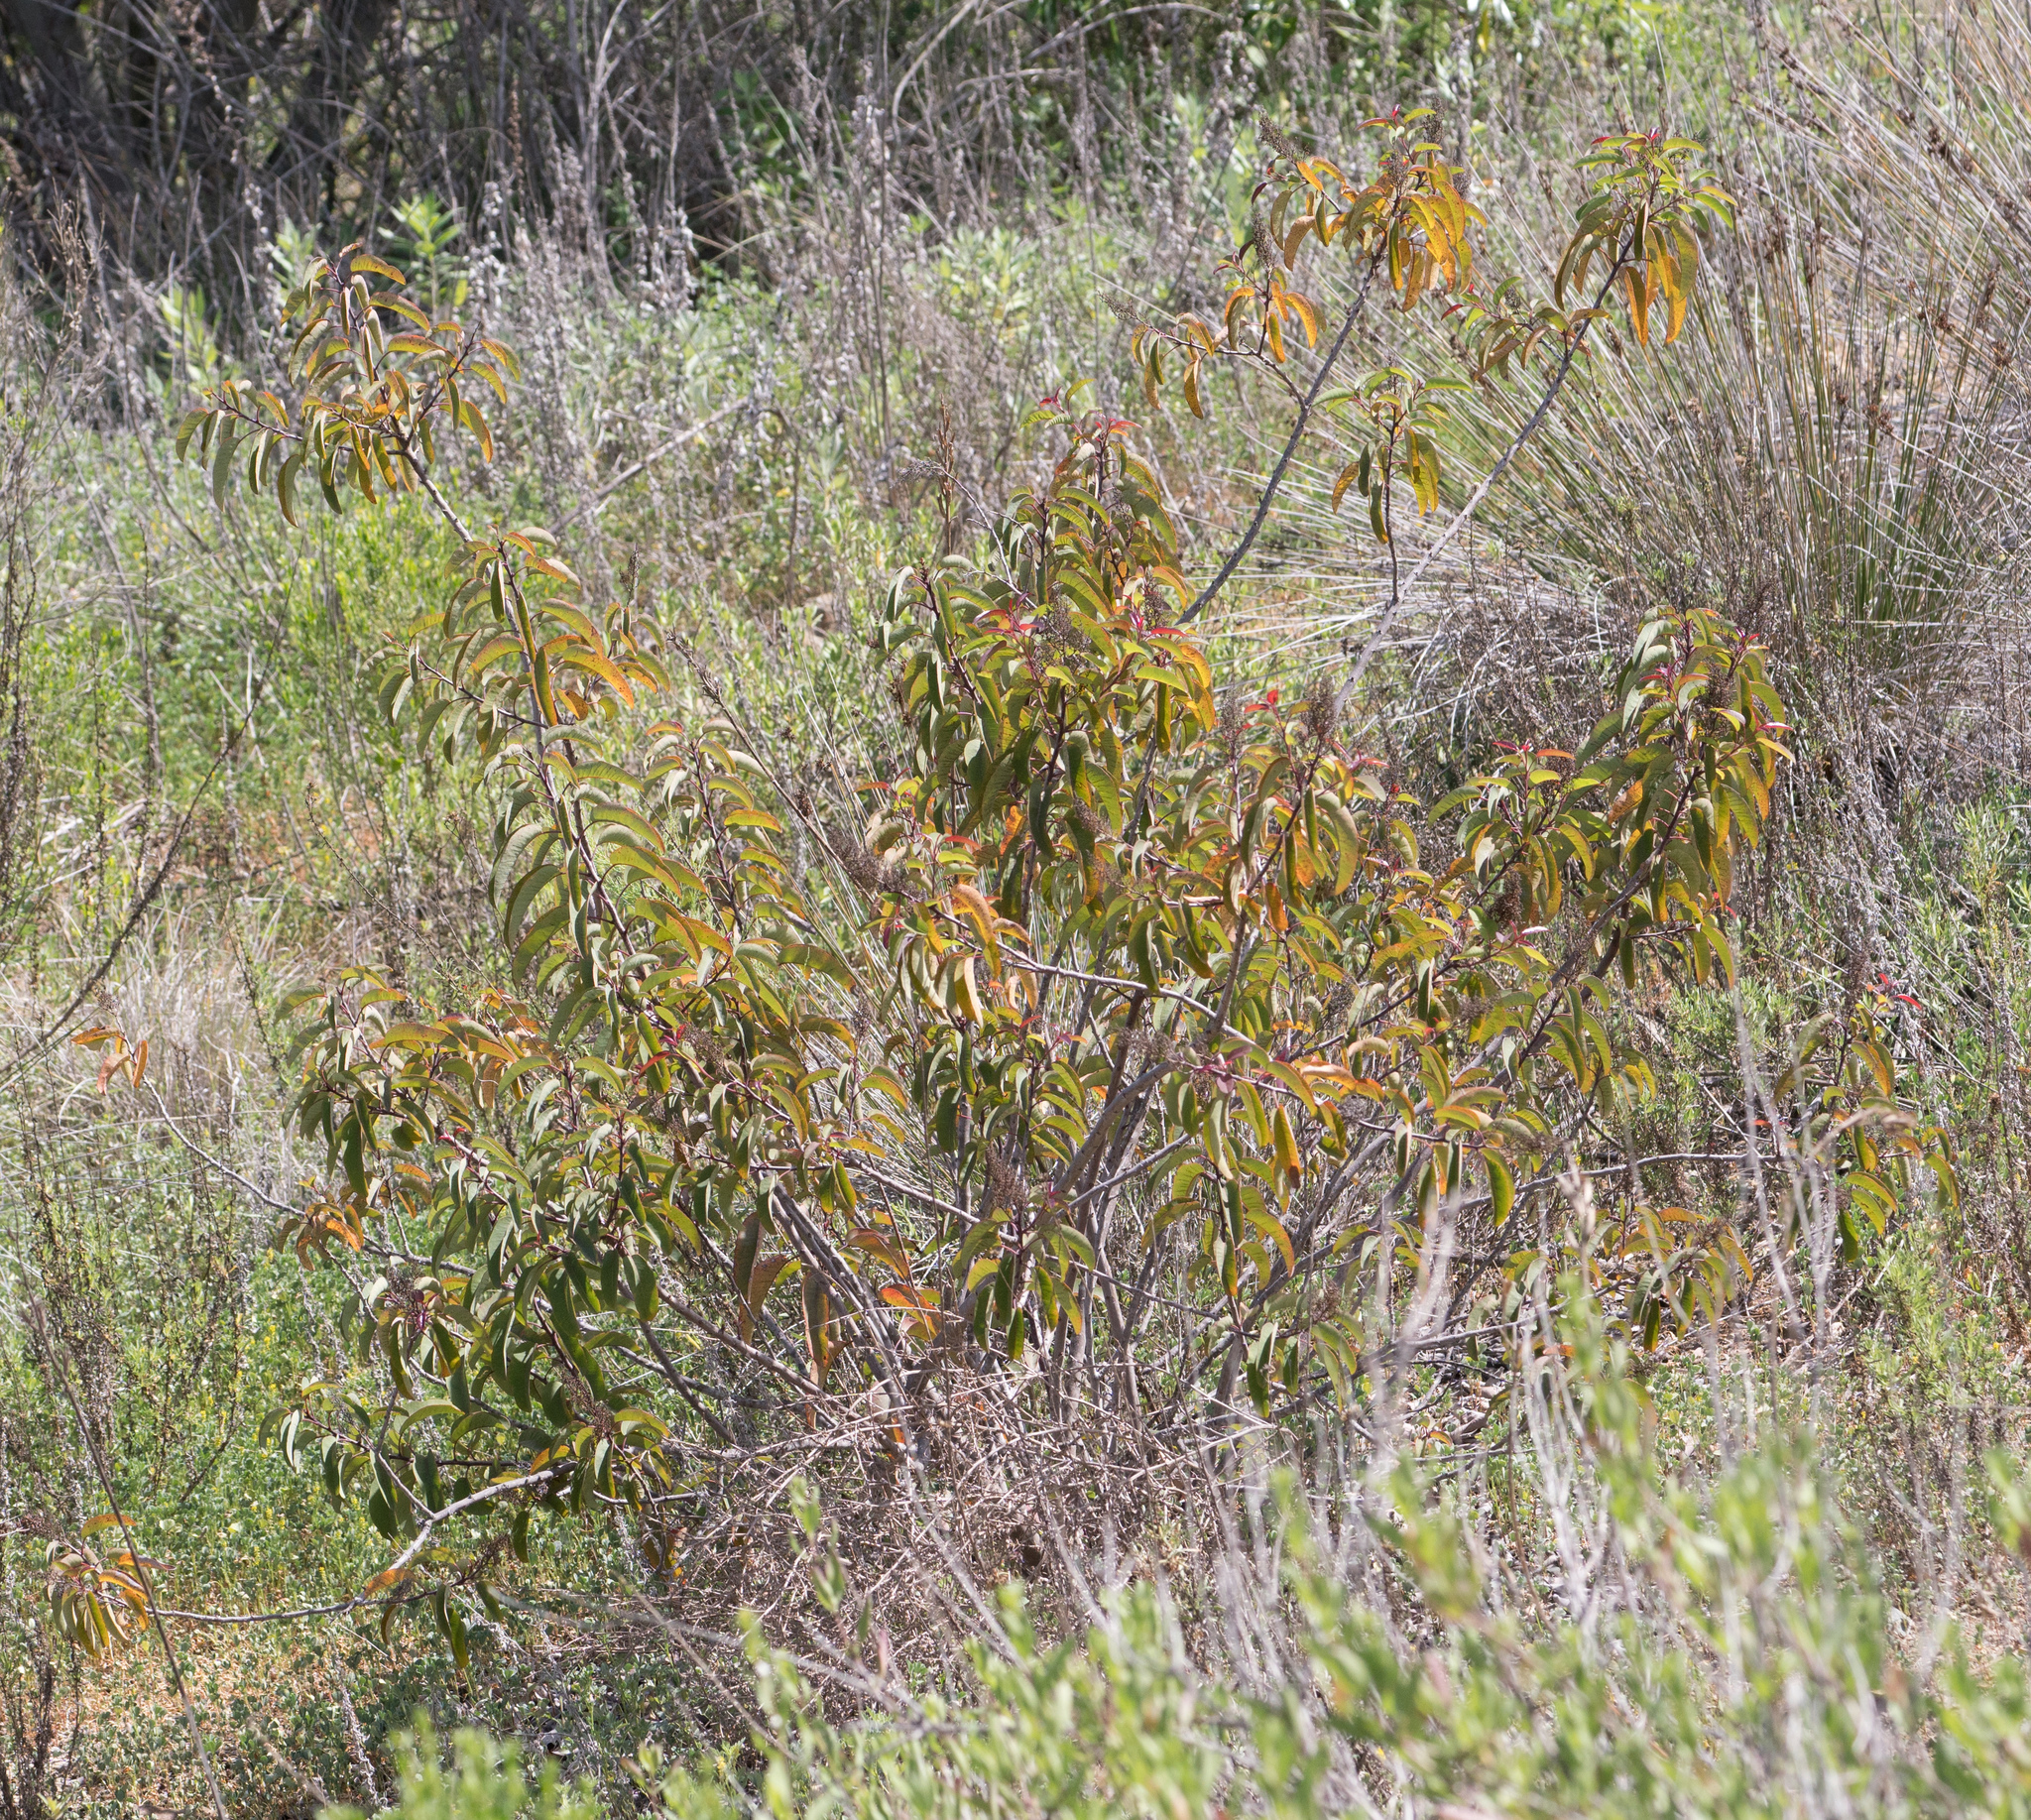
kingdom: Plantae
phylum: Tracheophyta
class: Magnoliopsida
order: Sapindales
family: Anacardiaceae
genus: Malosma
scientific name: Malosma laurina
